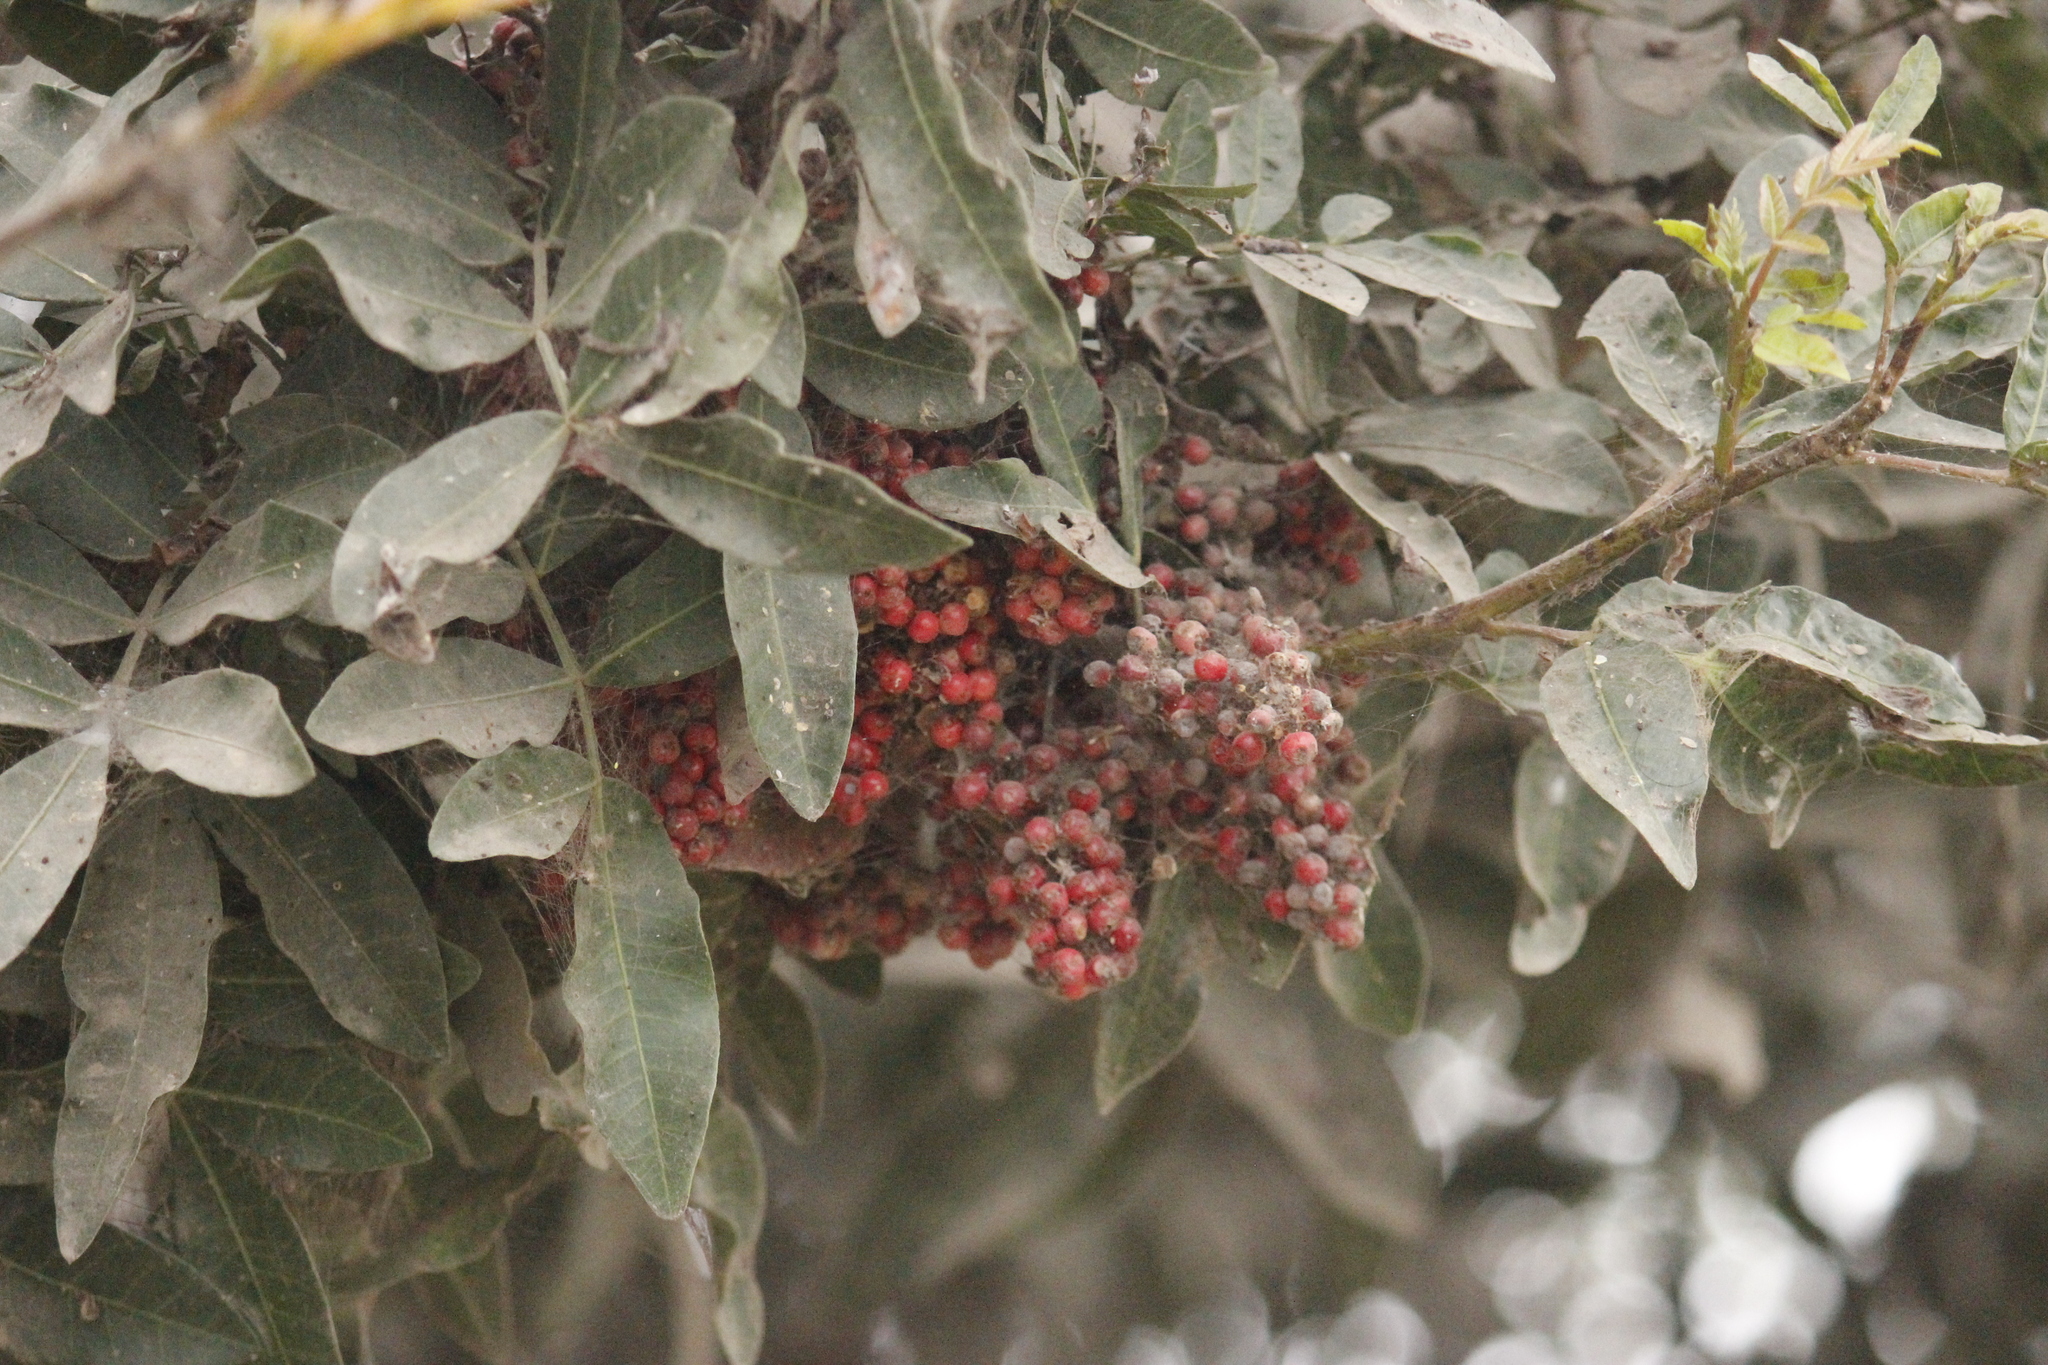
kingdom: Plantae
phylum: Tracheophyta
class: Magnoliopsida
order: Sapindales
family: Anacardiaceae
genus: Schinus
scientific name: Schinus terebinthifolia
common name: Brazilian peppertree
